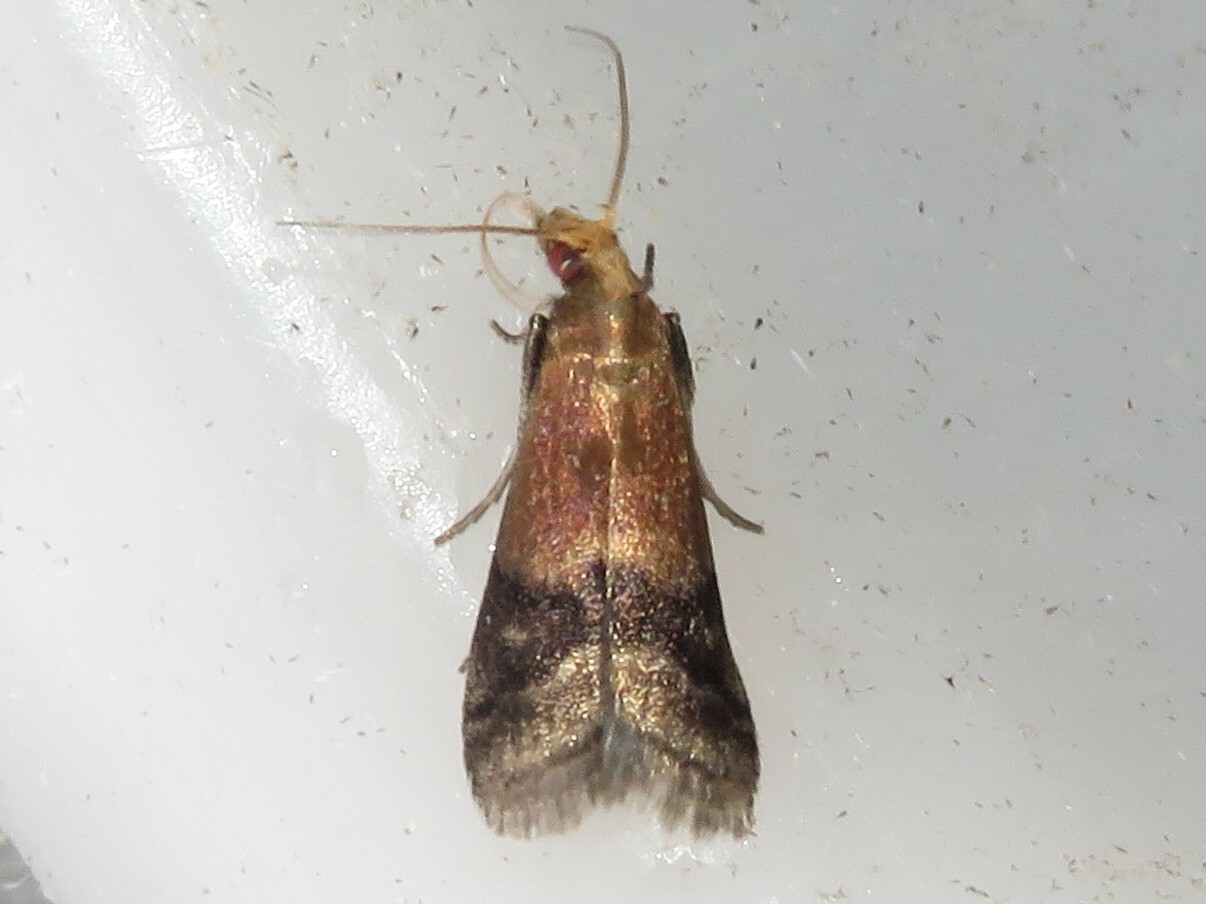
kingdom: Animalia
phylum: Arthropoda
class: Insecta
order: Lepidoptera
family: Pyralidae
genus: Eulogia
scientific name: Eulogia ochrifrontella
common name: Broad-banded eulogia moth
